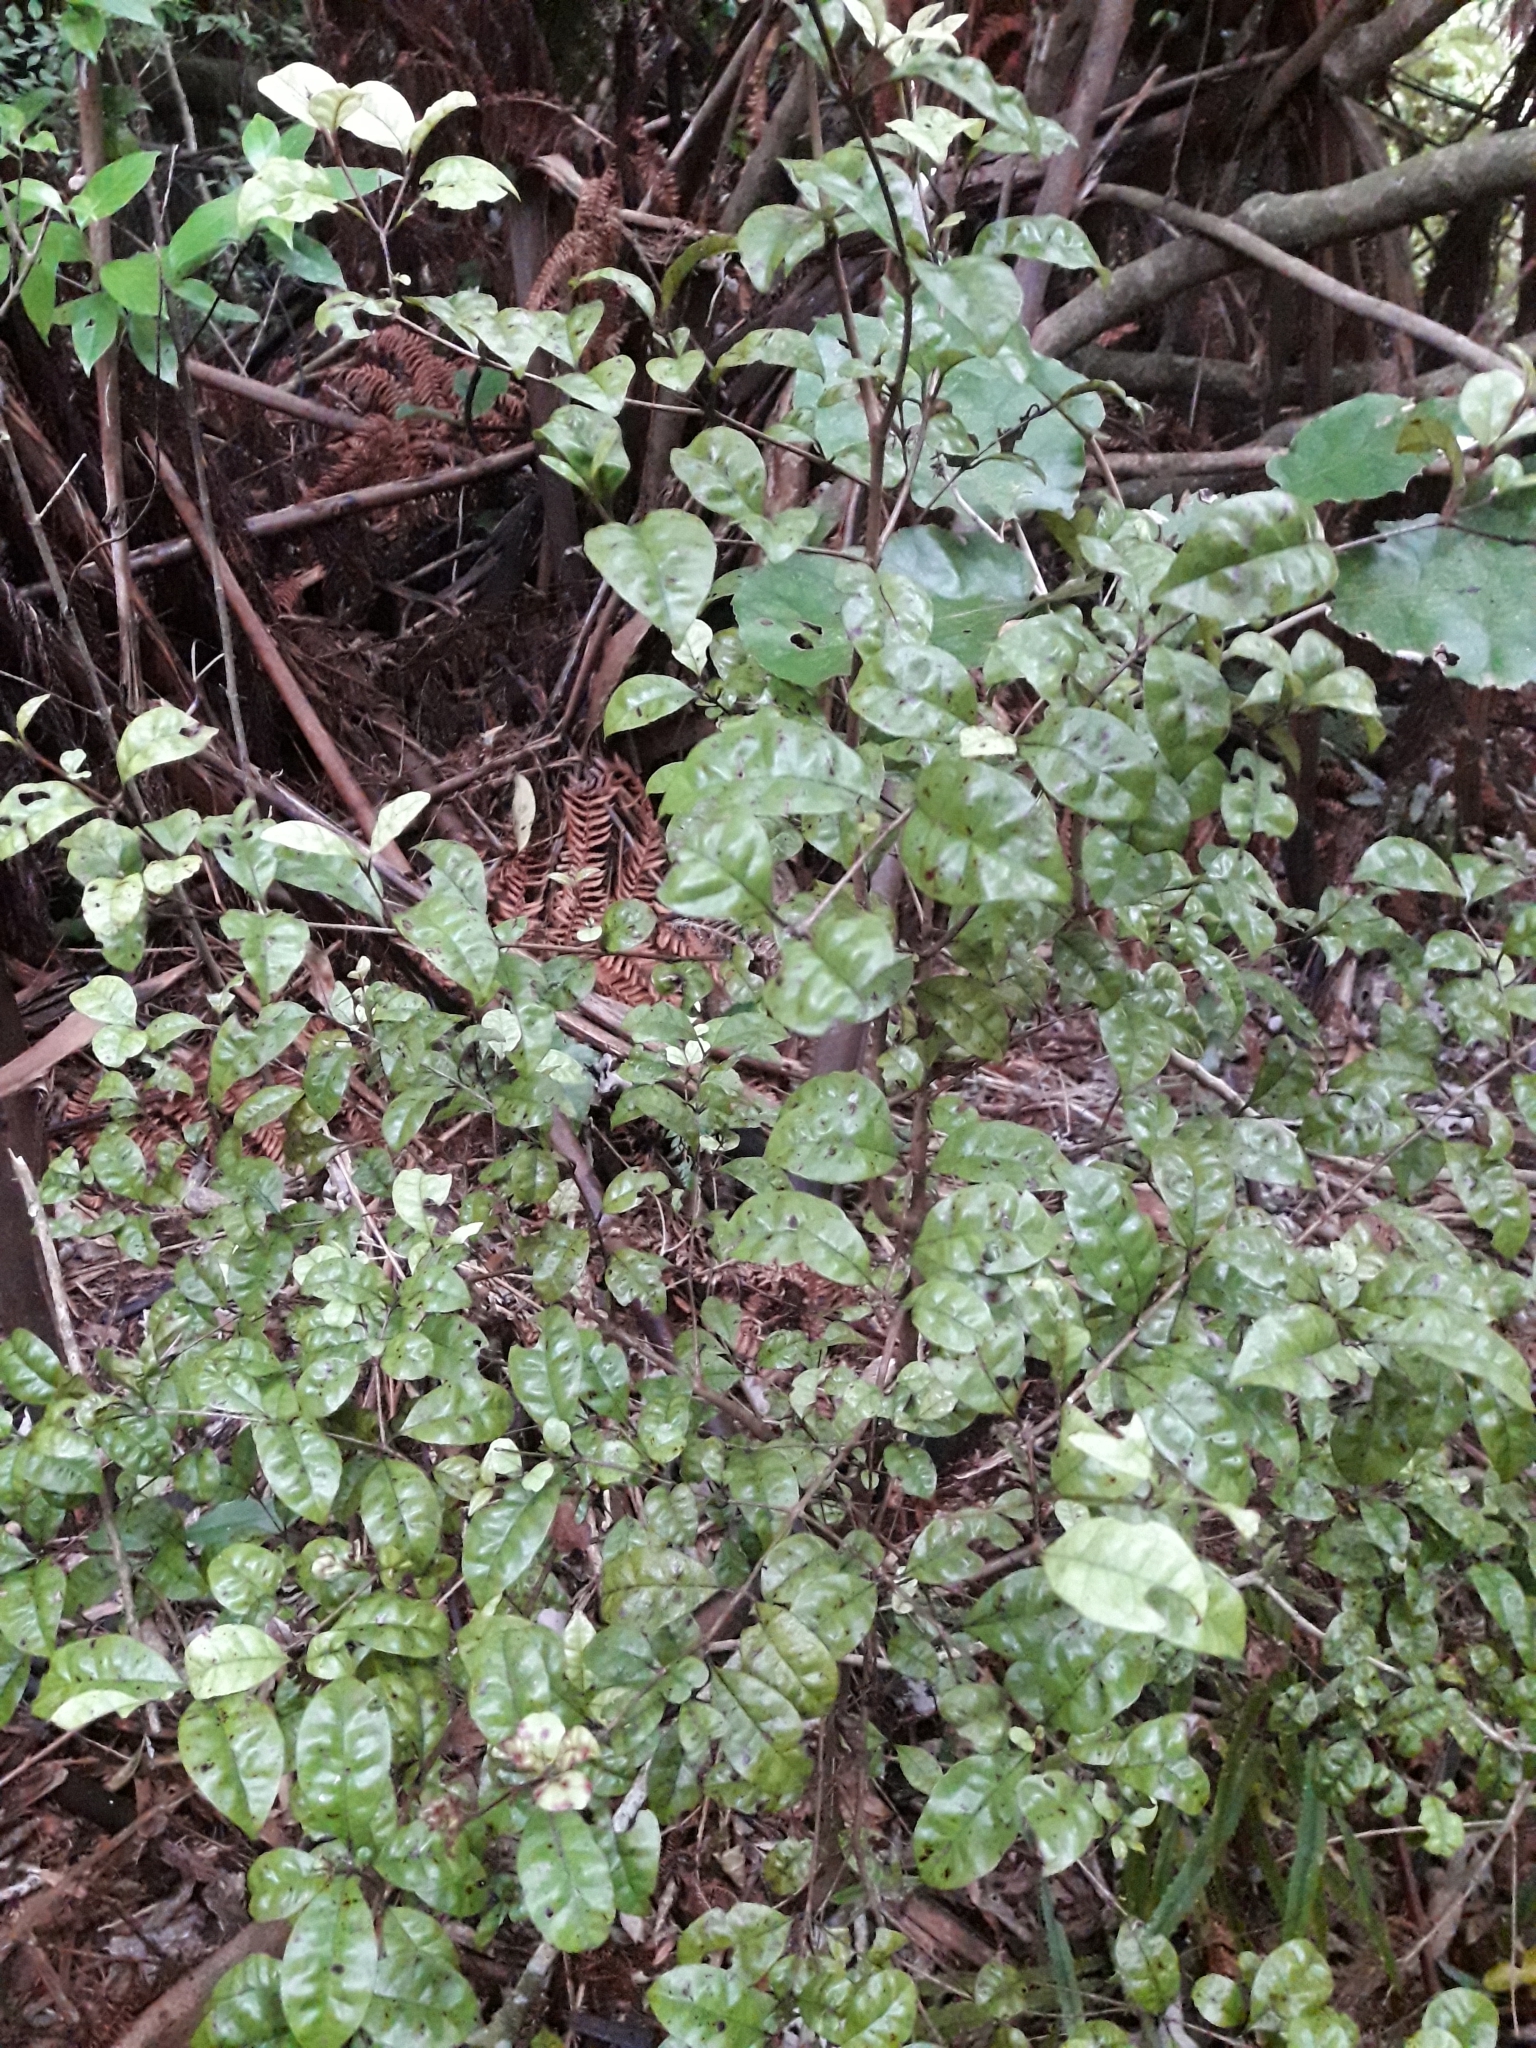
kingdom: Plantae
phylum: Tracheophyta
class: Magnoliopsida
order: Myrtales
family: Myrtaceae
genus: Lophomyrtus
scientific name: Lophomyrtus bullata
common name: Rama rama
